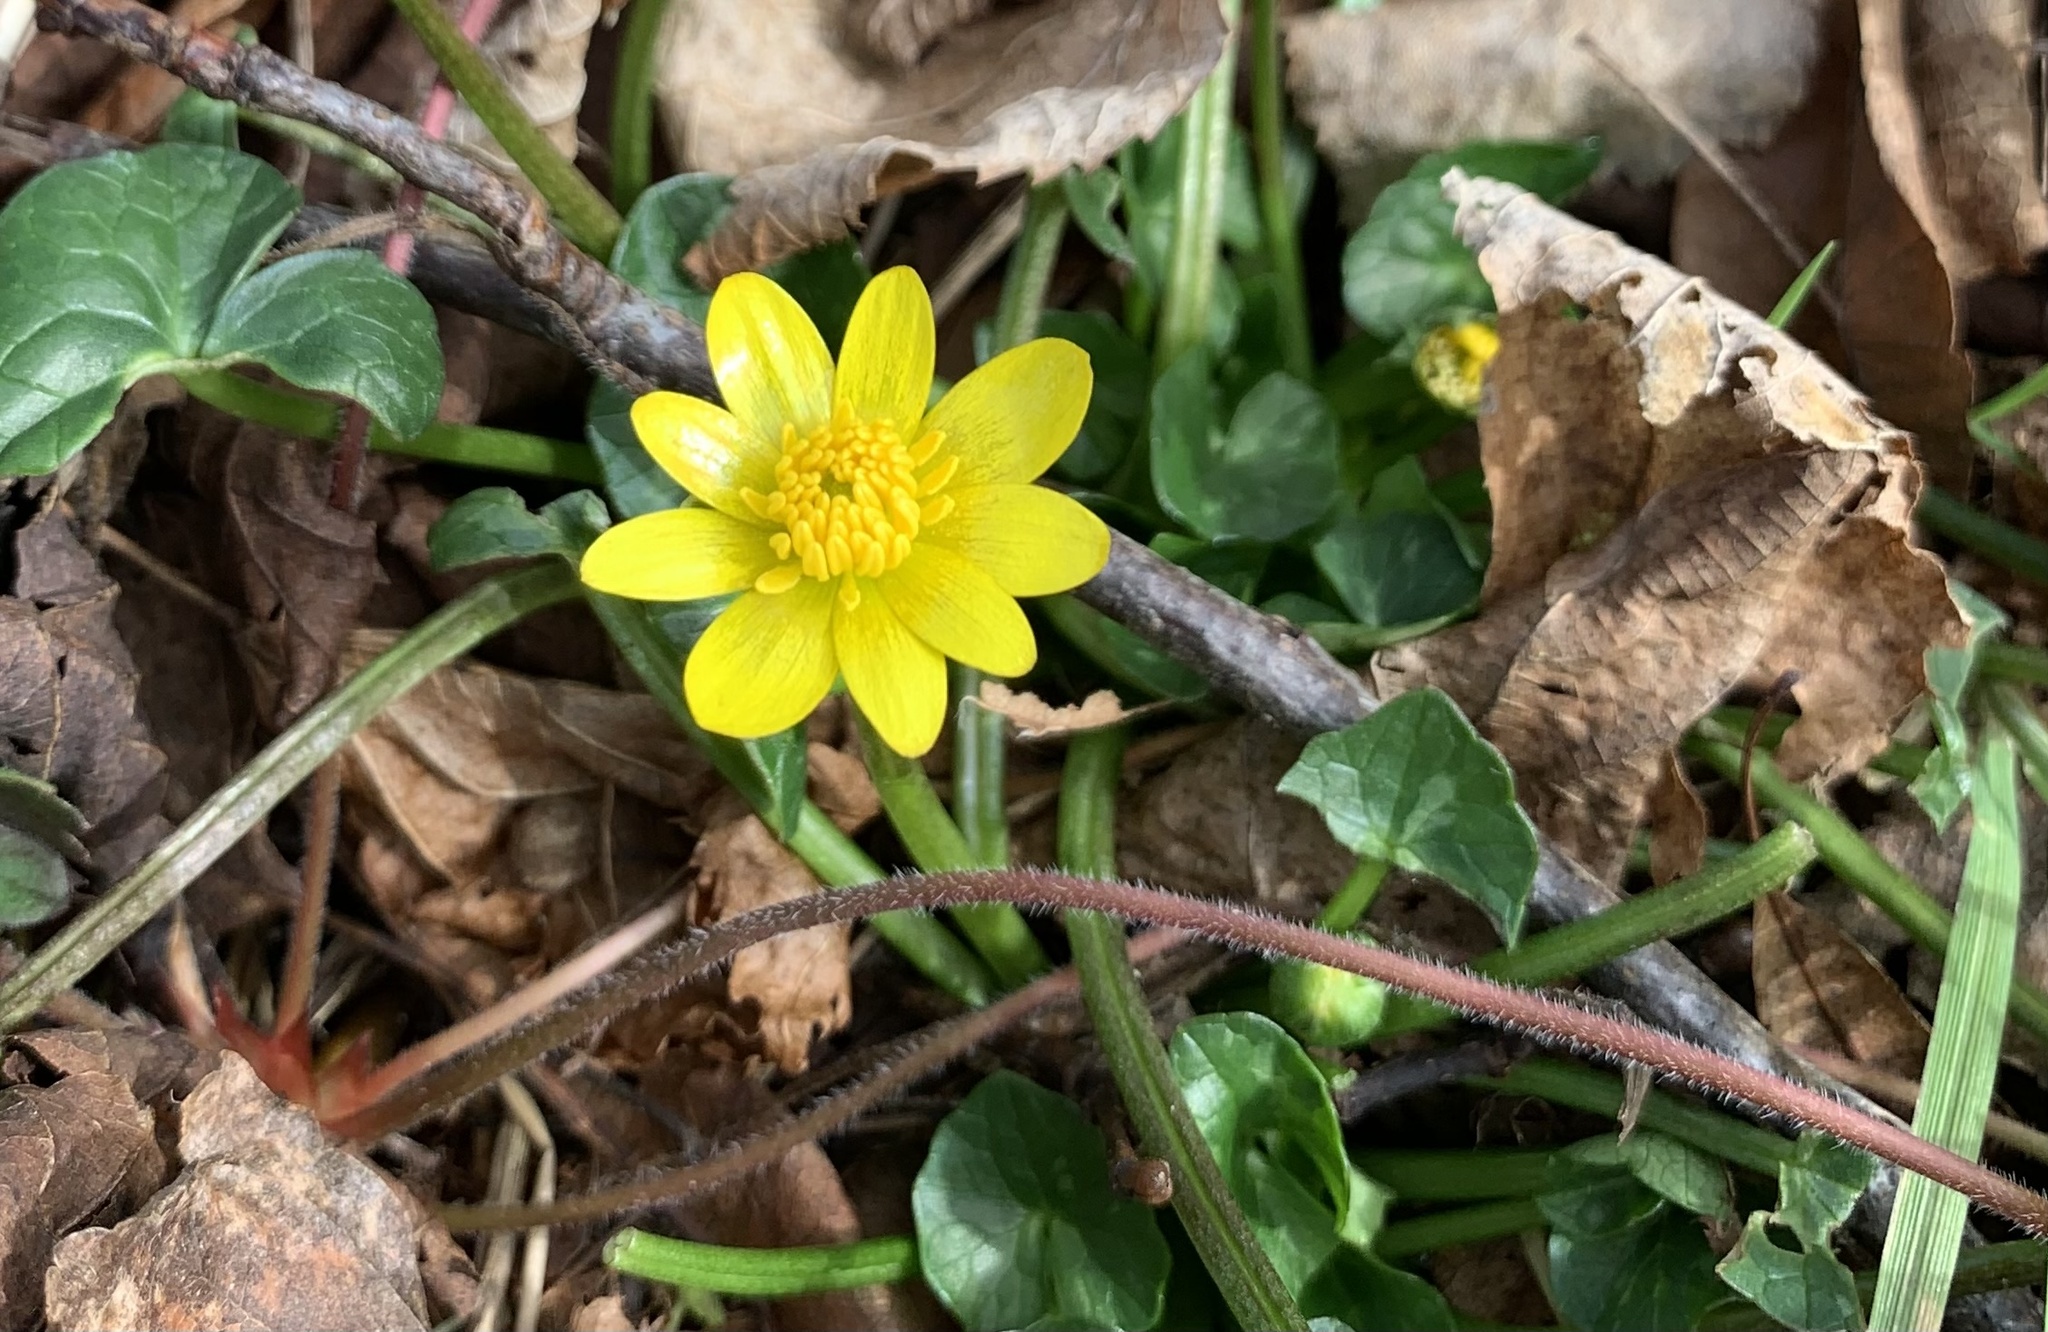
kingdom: Plantae
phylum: Tracheophyta
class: Magnoliopsida
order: Ranunculales
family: Ranunculaceae
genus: Ficaria
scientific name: Ficaria verna
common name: Lesser celandine
